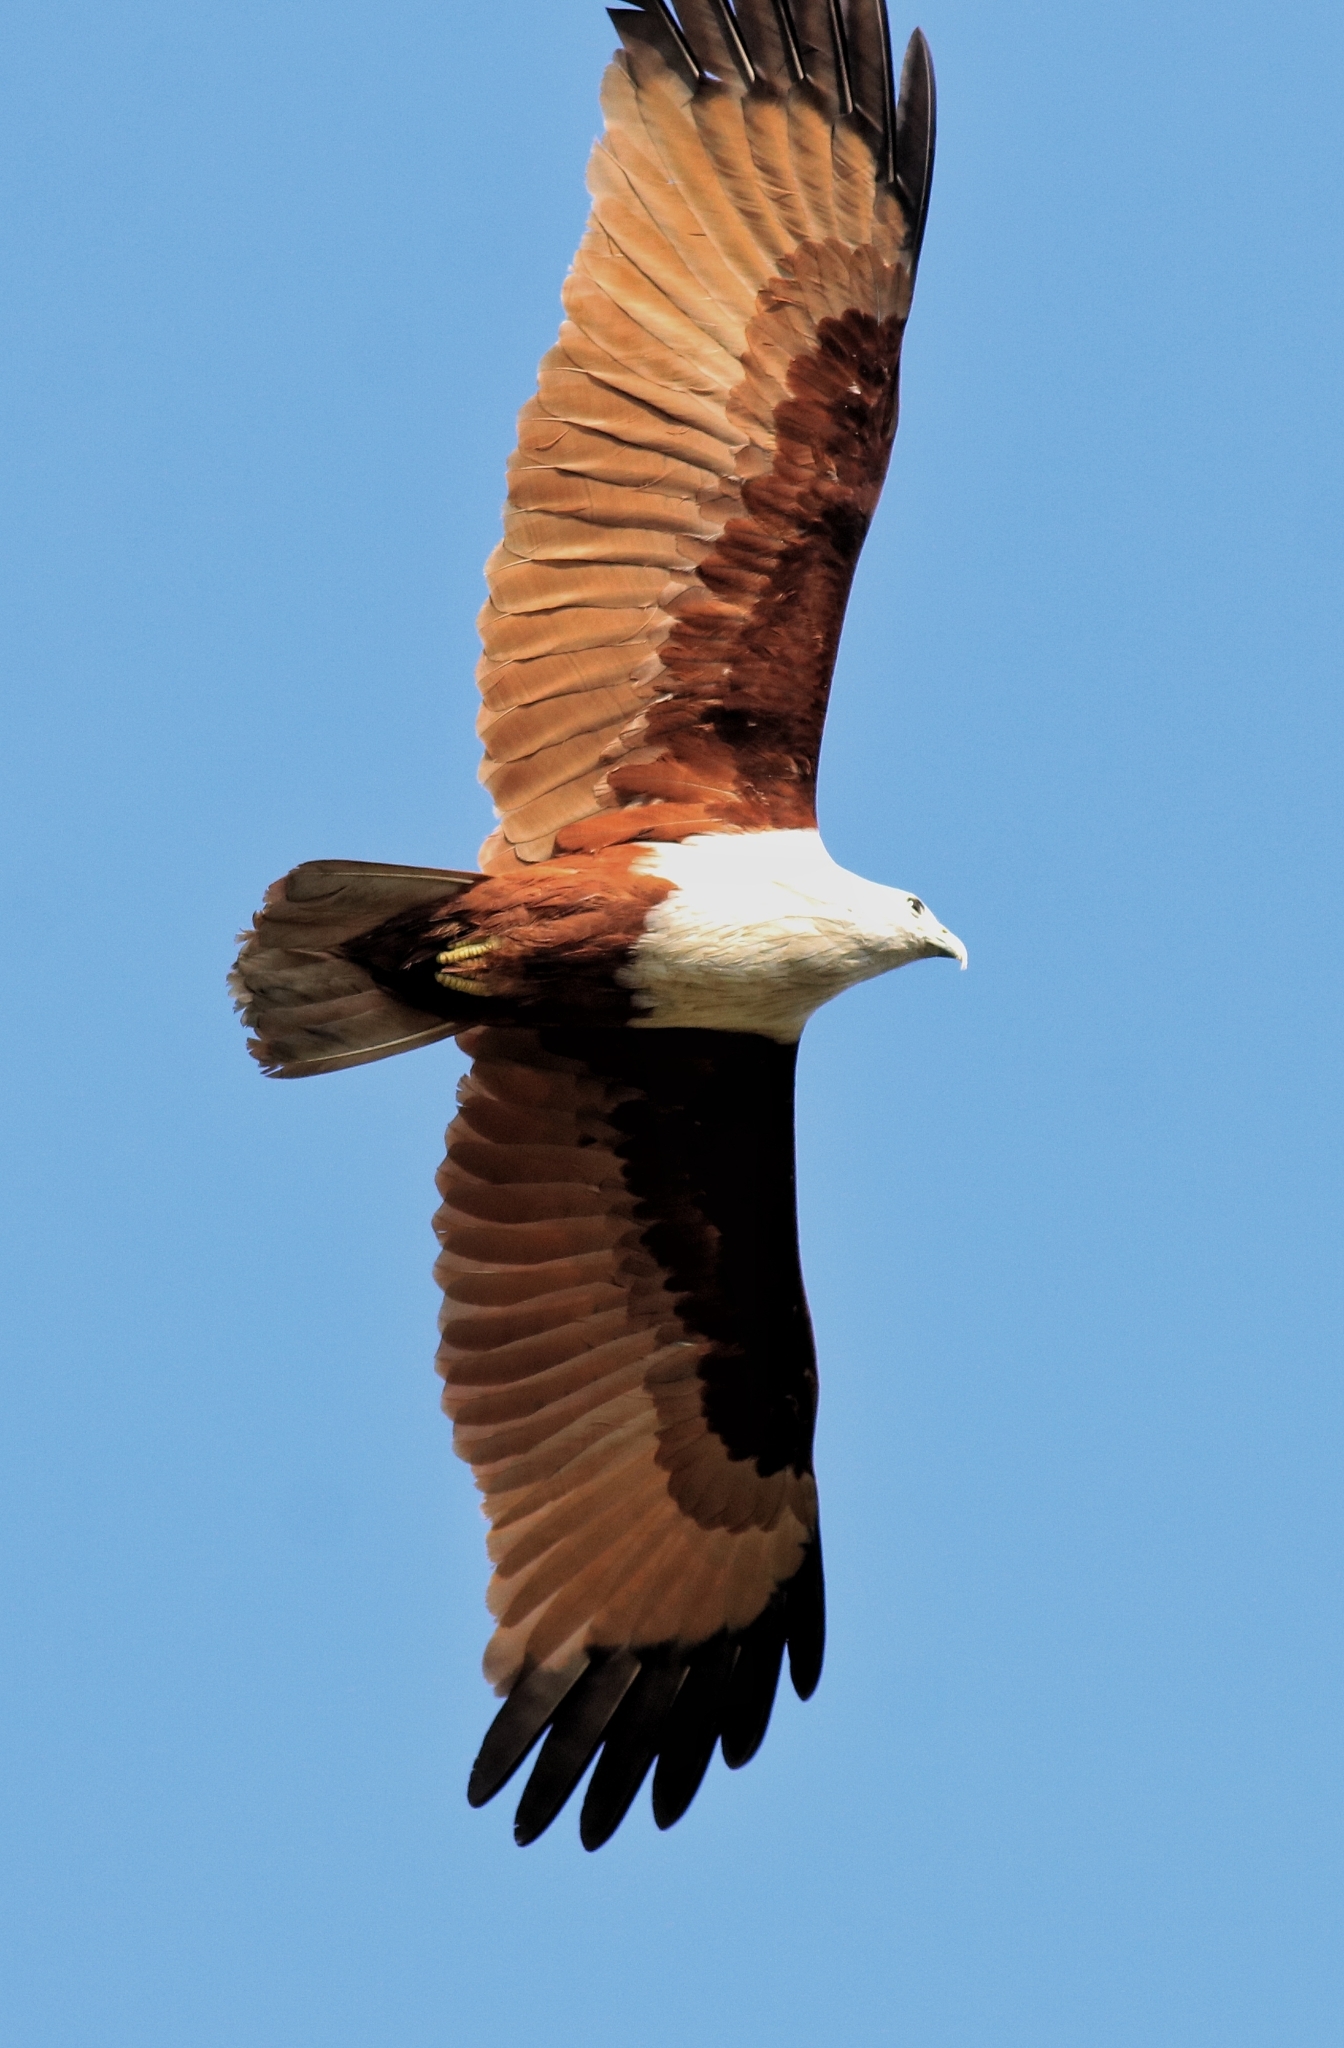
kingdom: Animalia
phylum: Chordata
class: Aves
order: Accipitriformes
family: Accipitridae
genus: Haliastur
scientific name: Haliastur indus
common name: Brahminy kite
